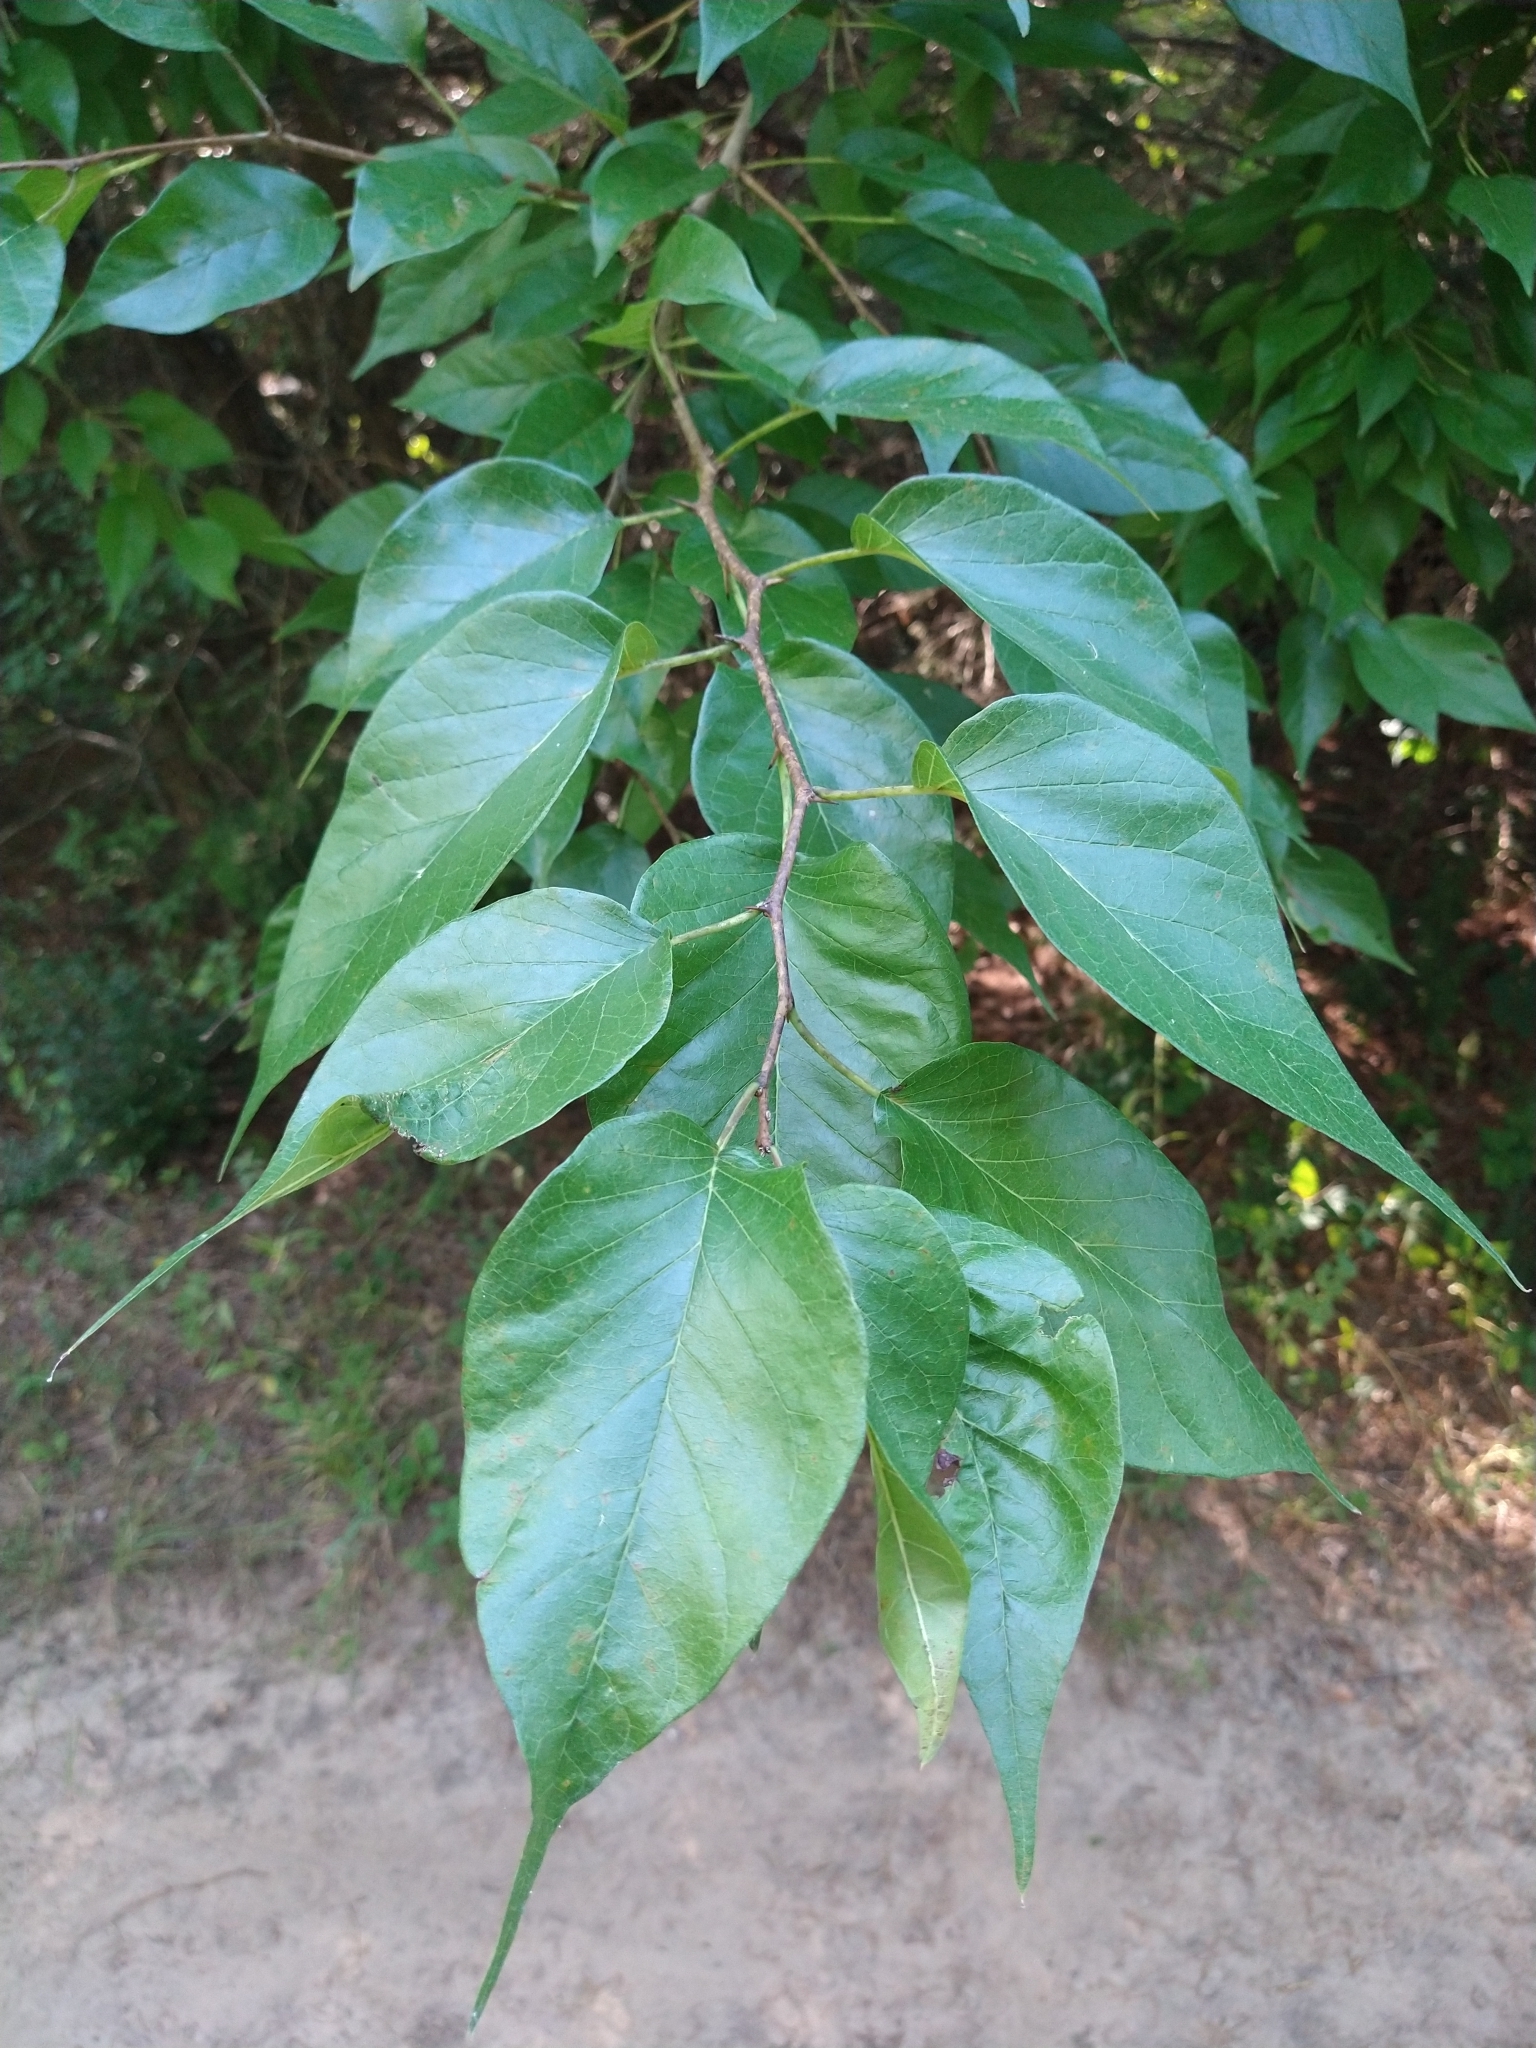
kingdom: Plantae
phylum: Tracheophyta
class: Magnoliopsida
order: Rosales
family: Moraceae
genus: Maclura
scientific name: Maclura pomifera
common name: Osage-orange
